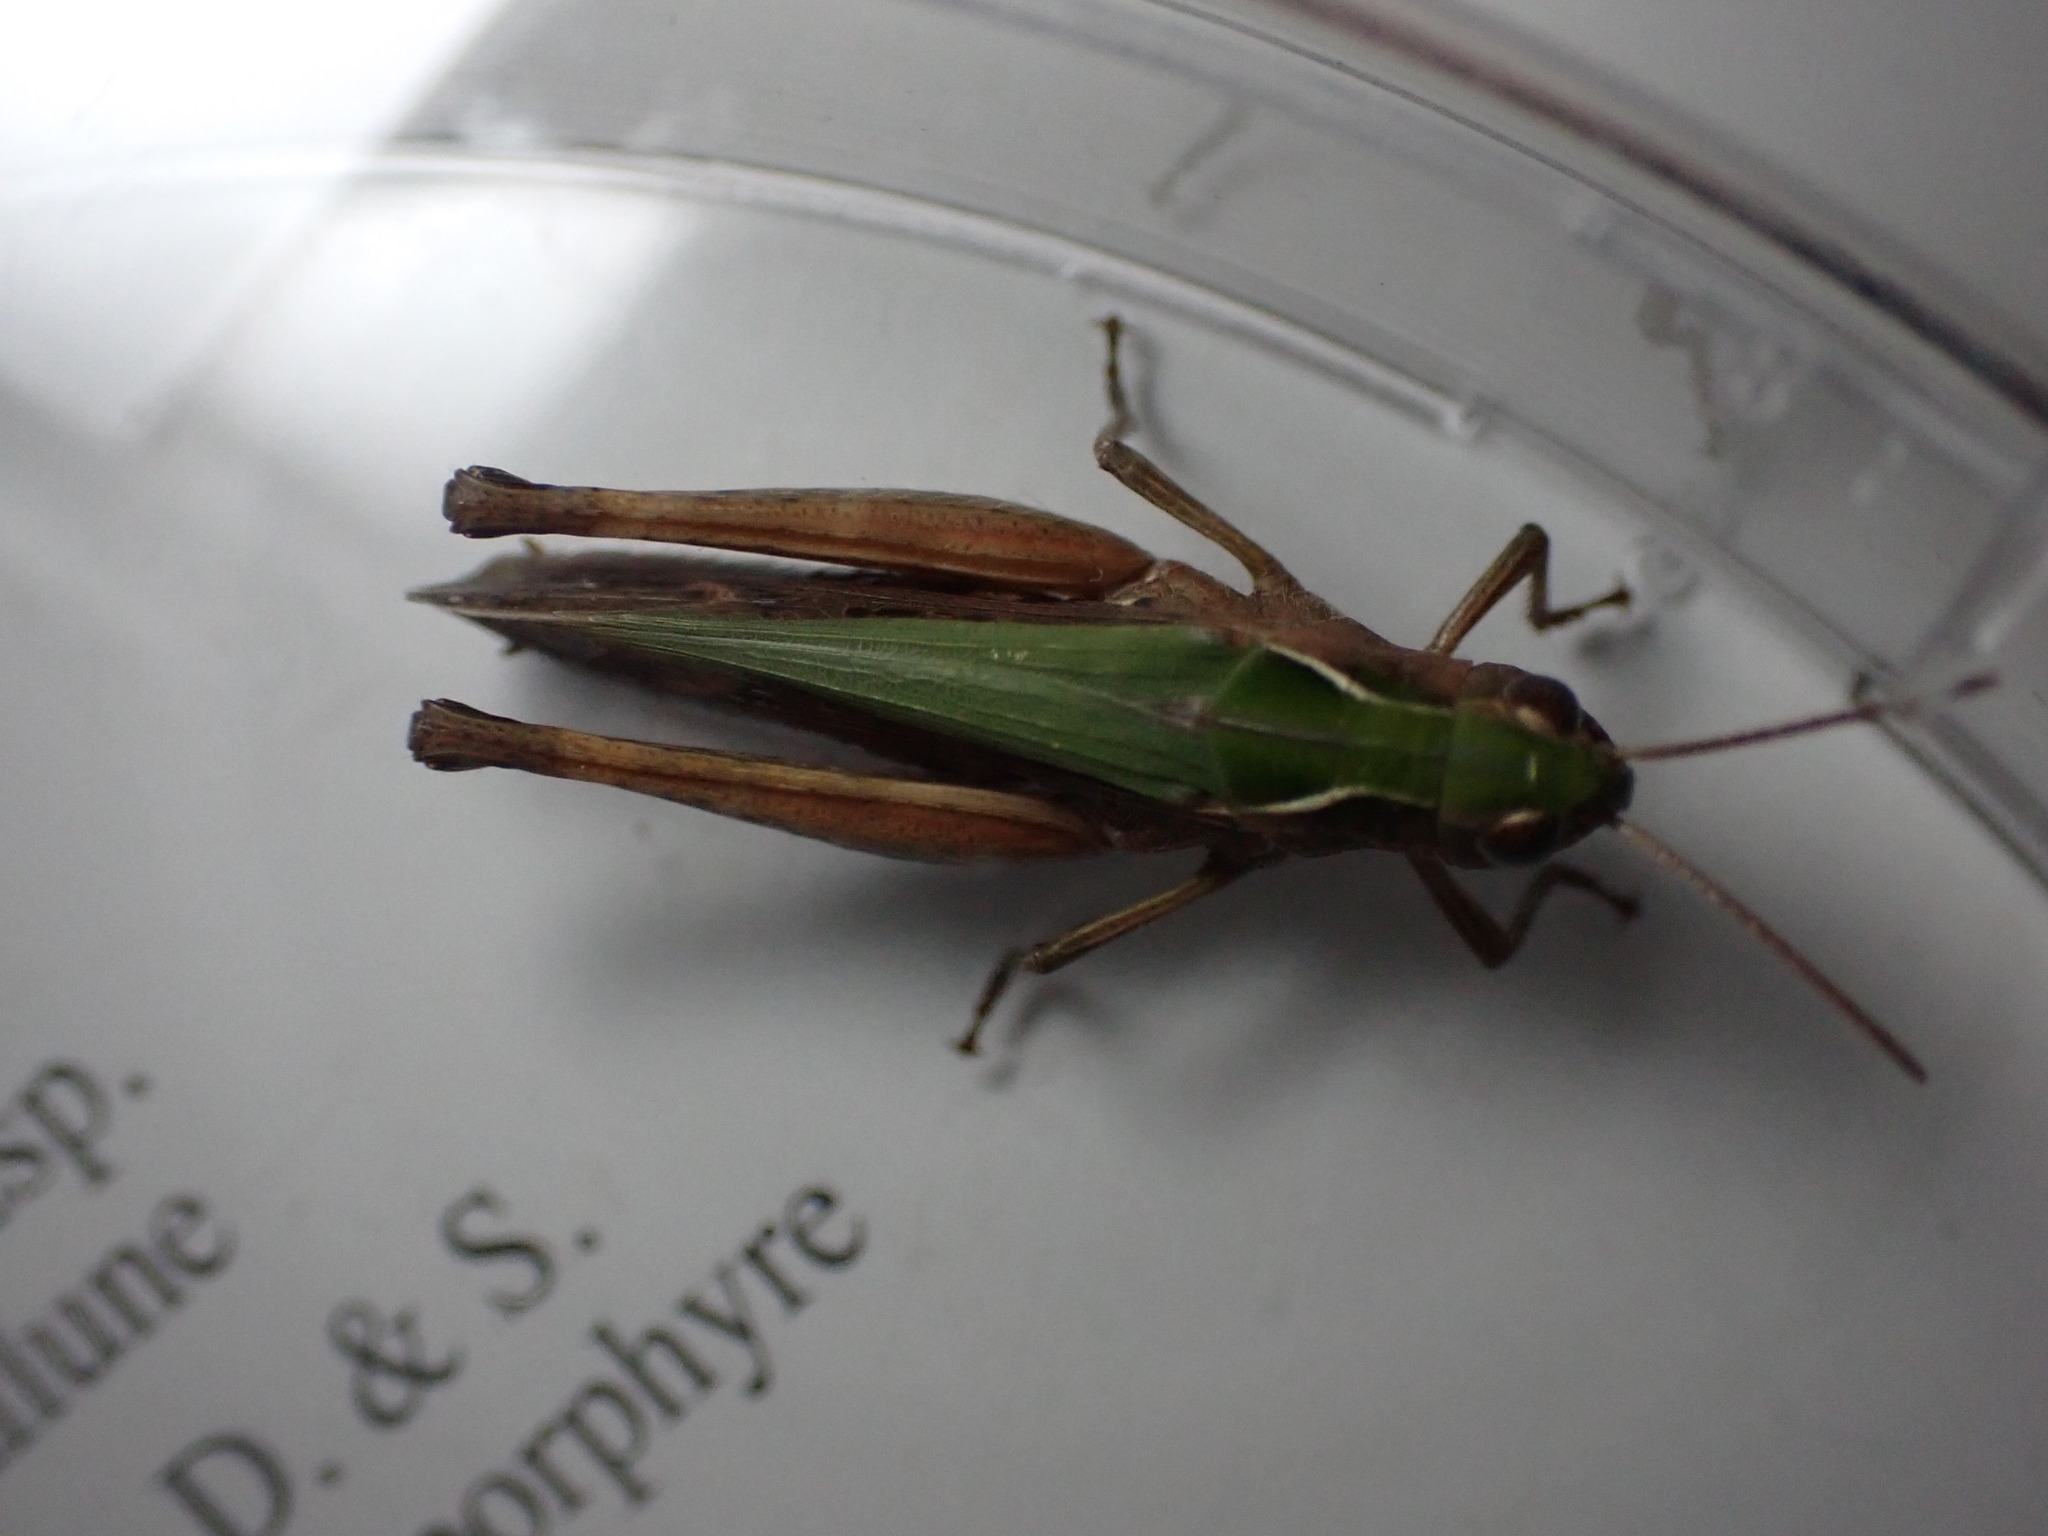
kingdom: Animalia
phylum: Arthropoda
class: Insecta
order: Orthoptera
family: Acrididae
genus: Omocestus
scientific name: Omocestus rufipes
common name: Woodland grasshopper
